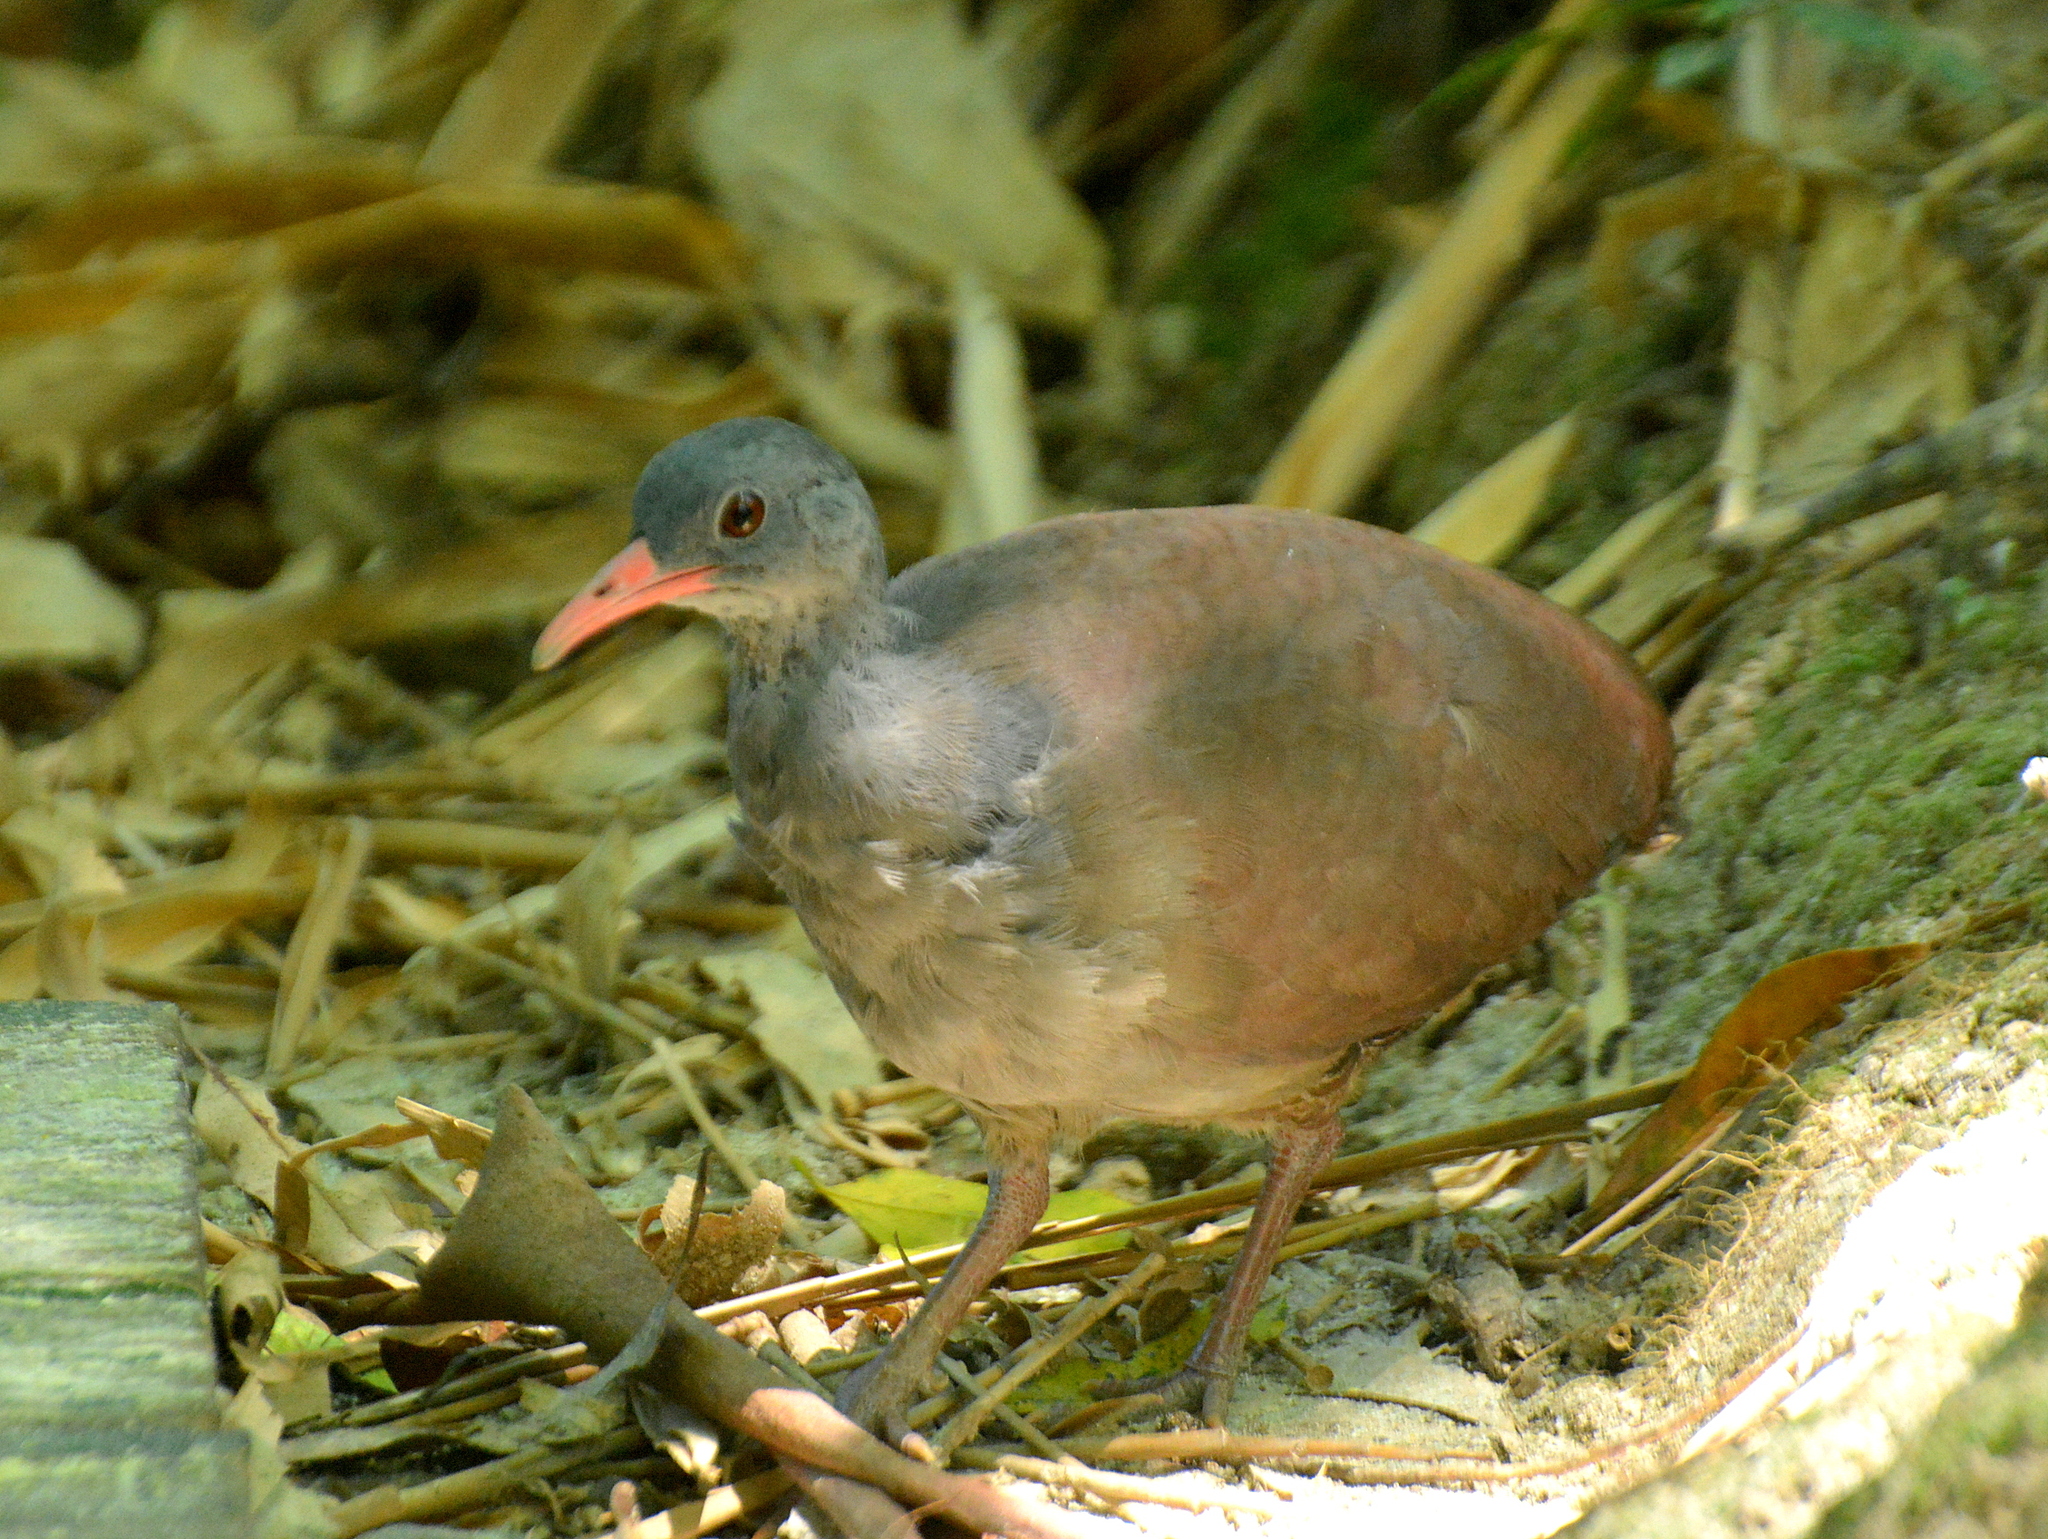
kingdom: Animalia
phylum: Chordata
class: Aves
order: Tinamiformes
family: Tinamidae
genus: Crypturellus
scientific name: Crypturellus tataupa
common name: Tataupa tinamou
